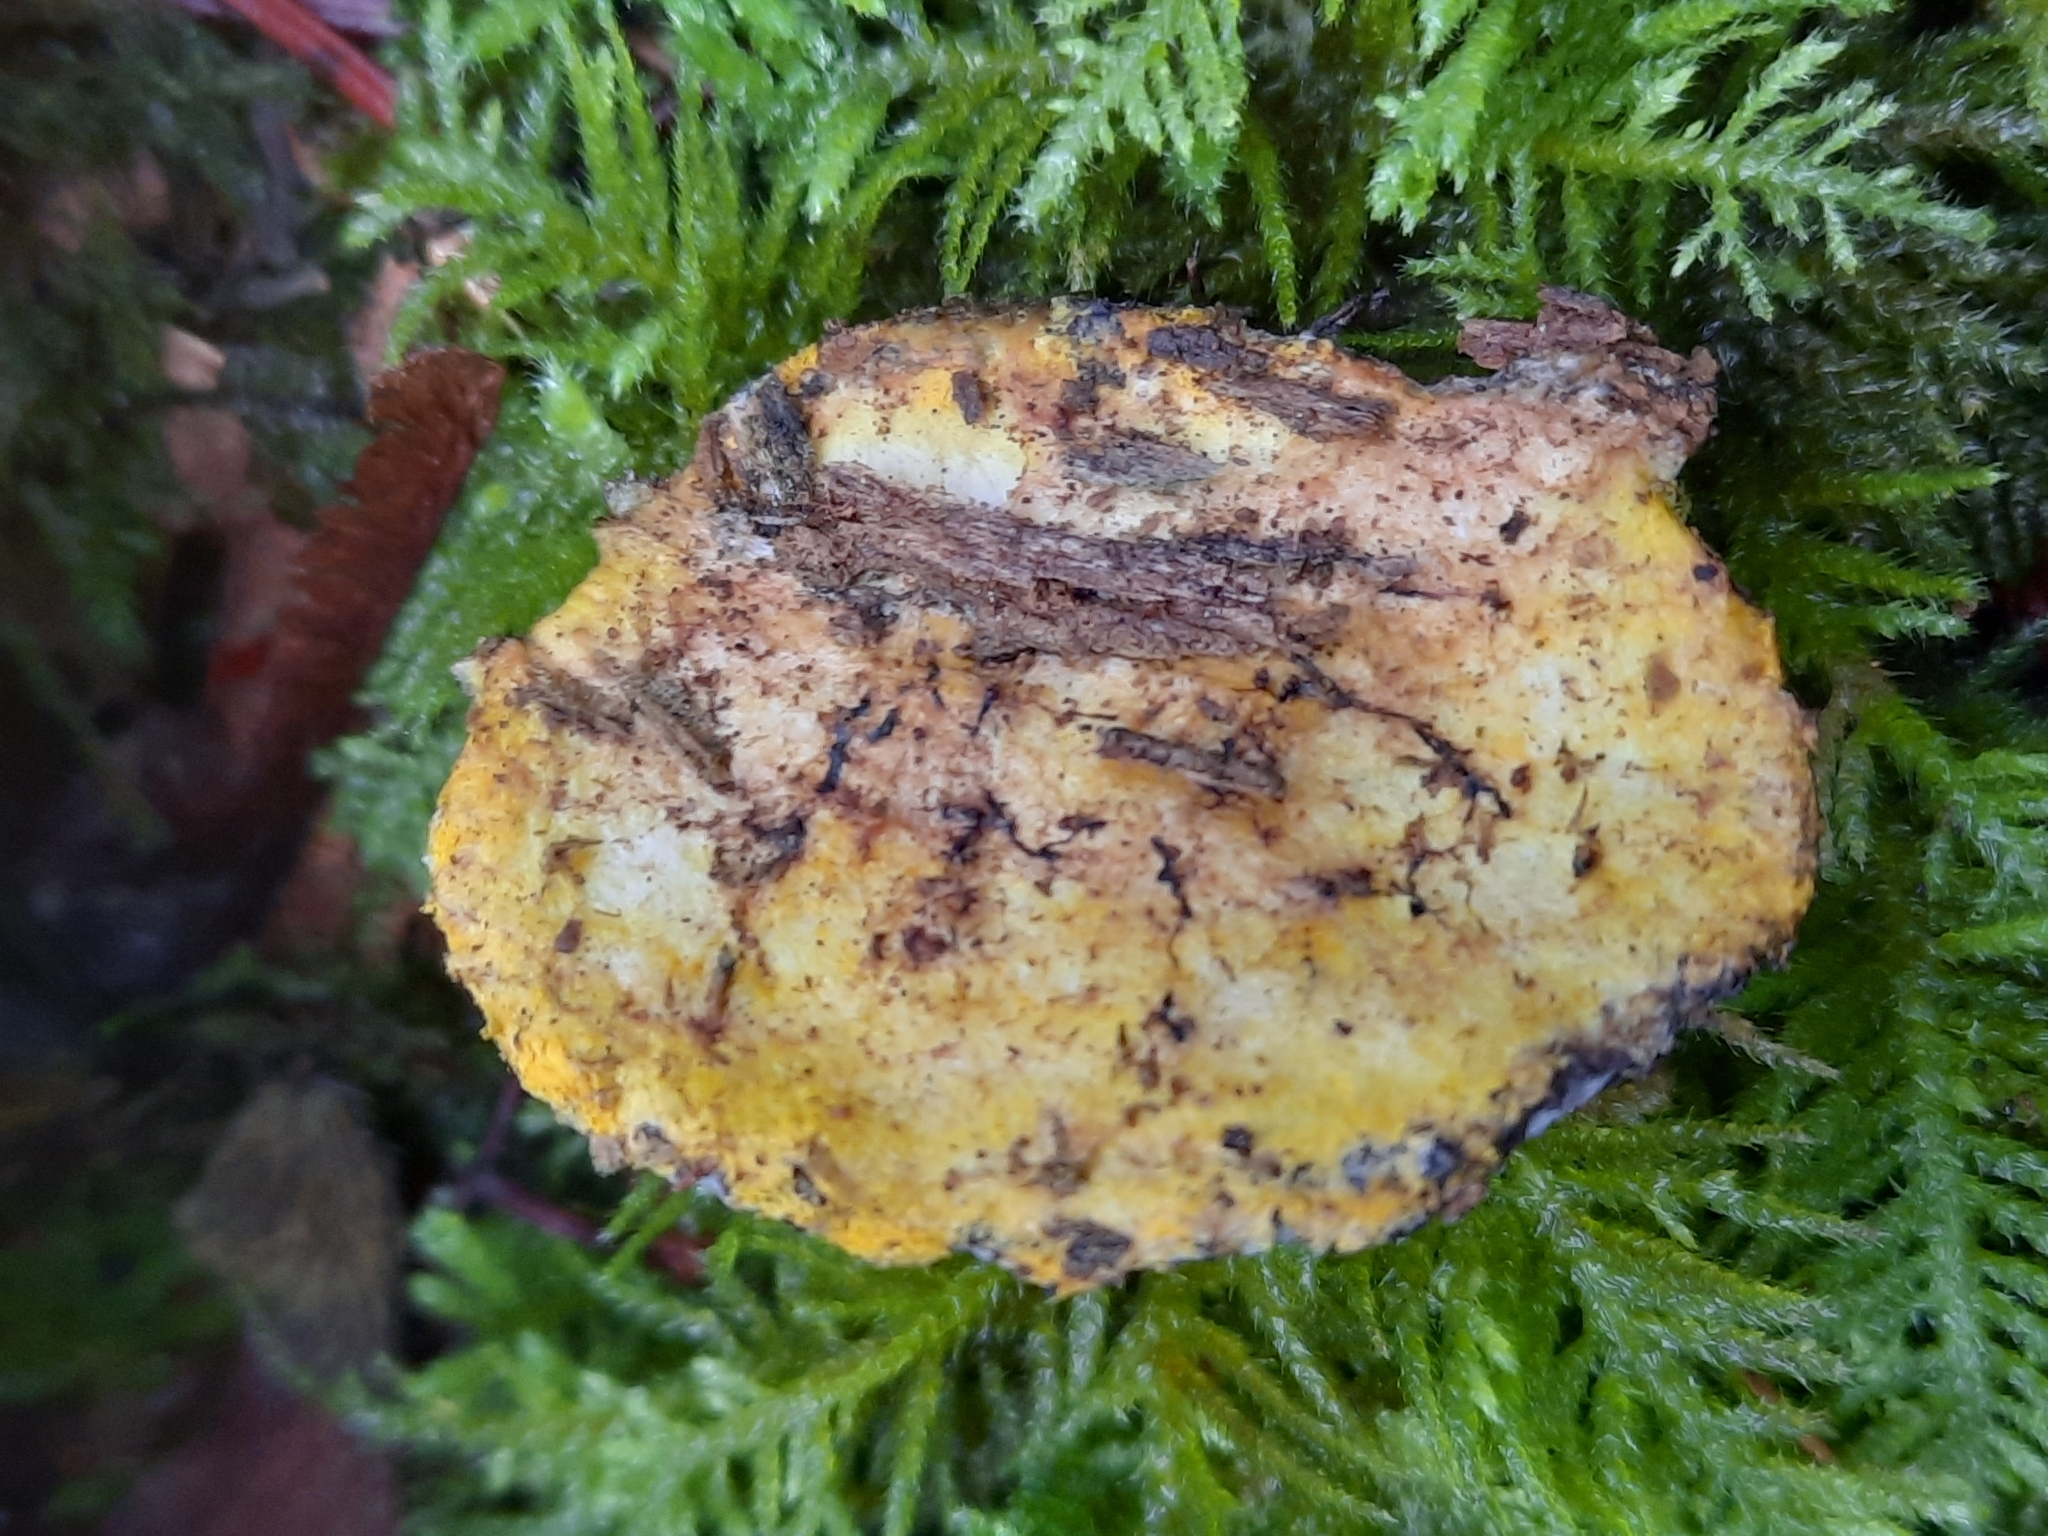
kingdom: Fungi
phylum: Ascomycota
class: Sordariomycetes
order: Hypocreales
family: Bionectriaceae
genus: Nectriopsis
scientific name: Nectriopsis violacea
